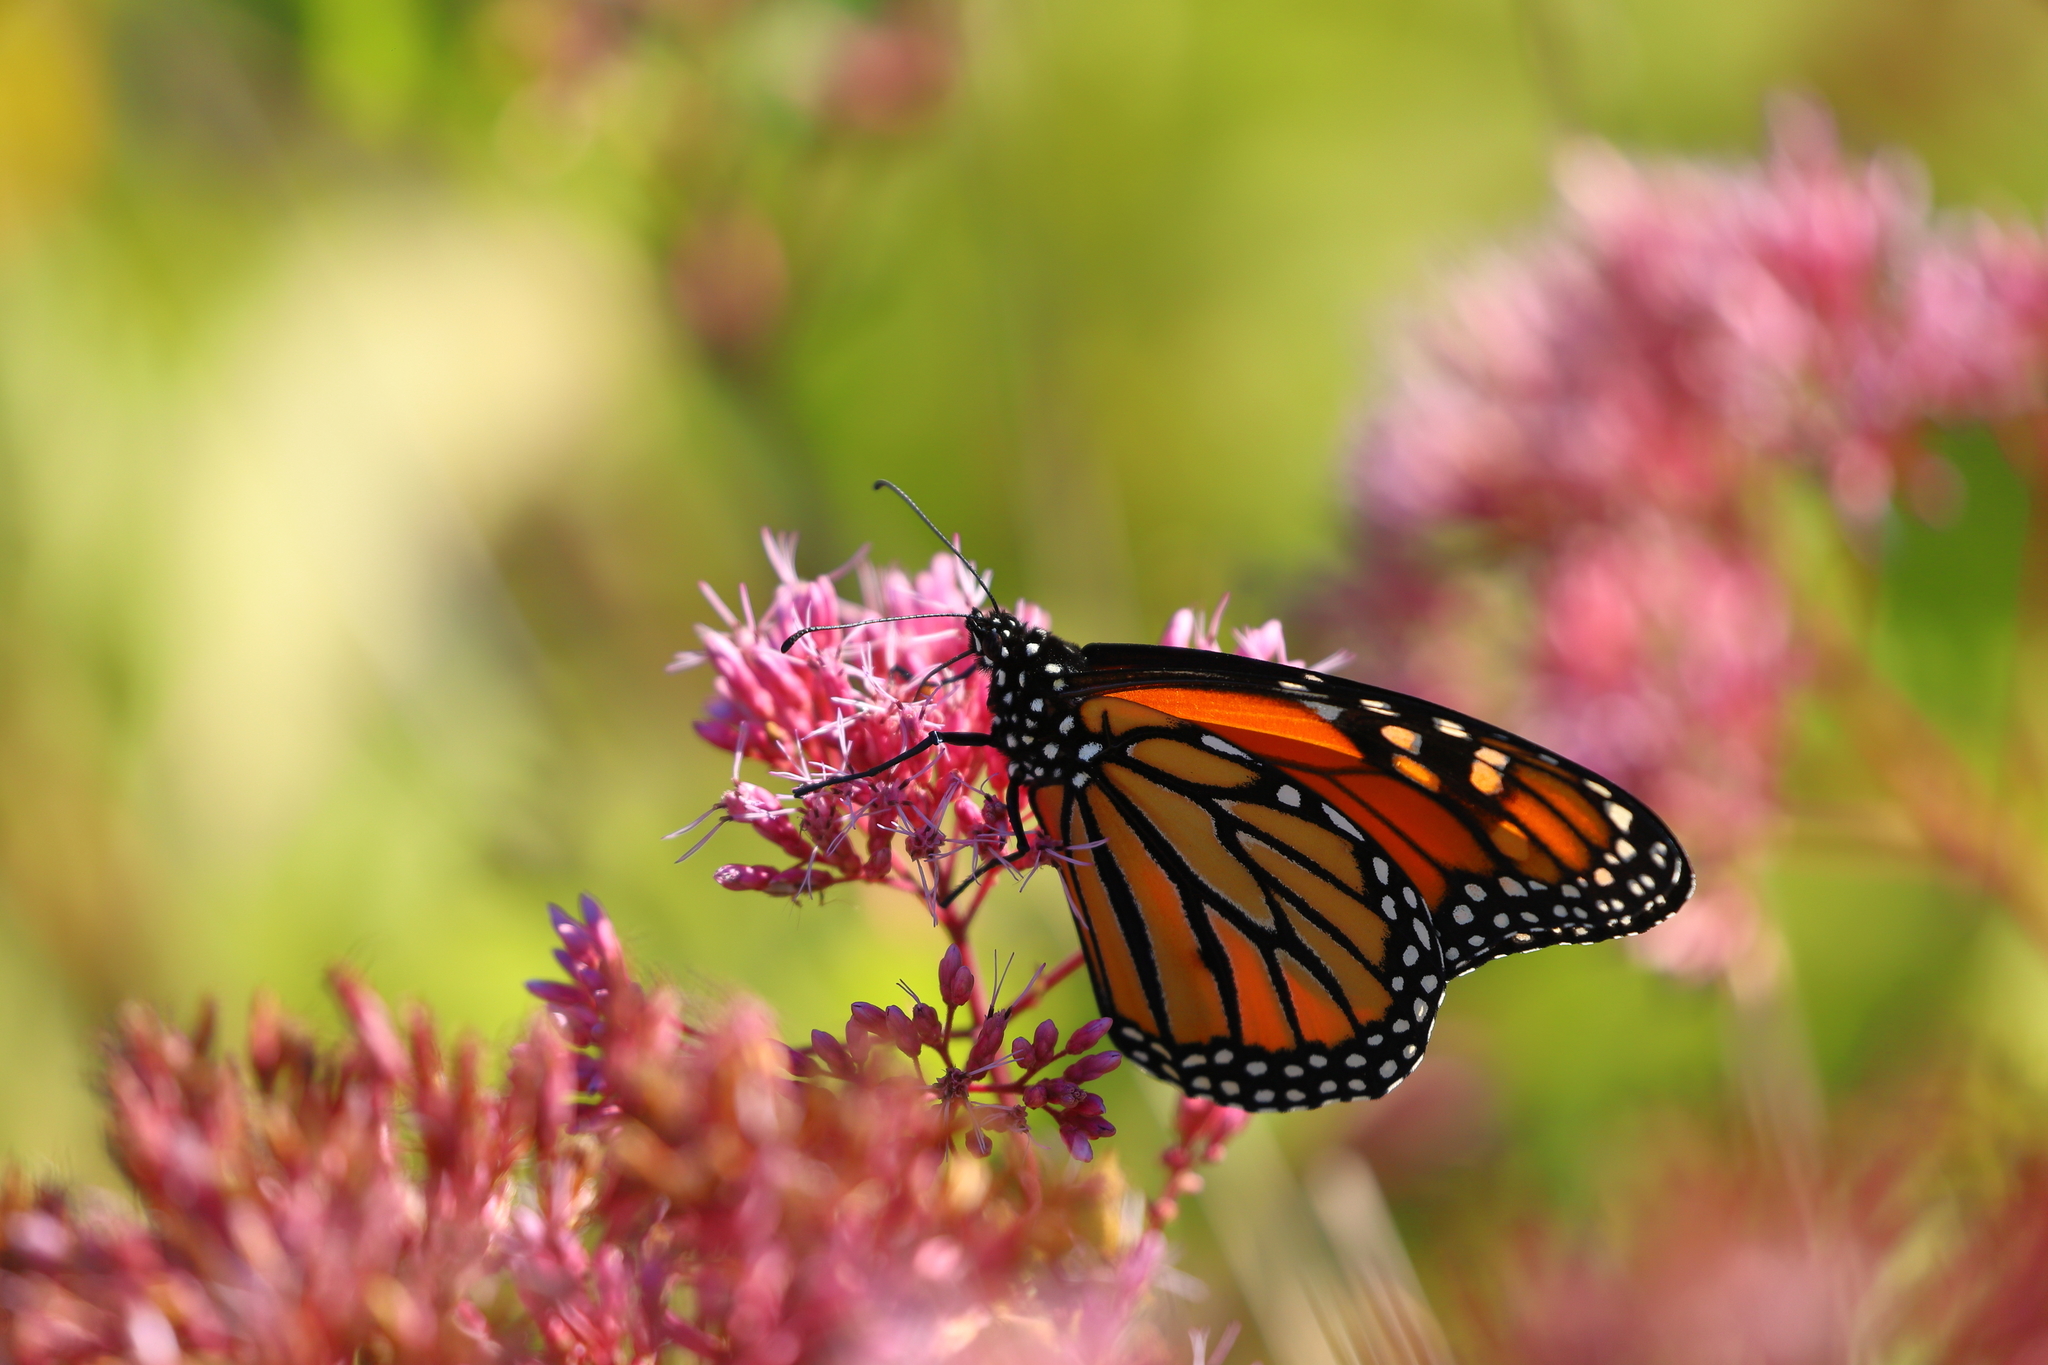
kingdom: Animalia
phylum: Arthropoda
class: Insecta
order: Lepidoptera
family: Nymphalidae
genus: Danaus
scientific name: Danaus plexippus
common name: Monarch
